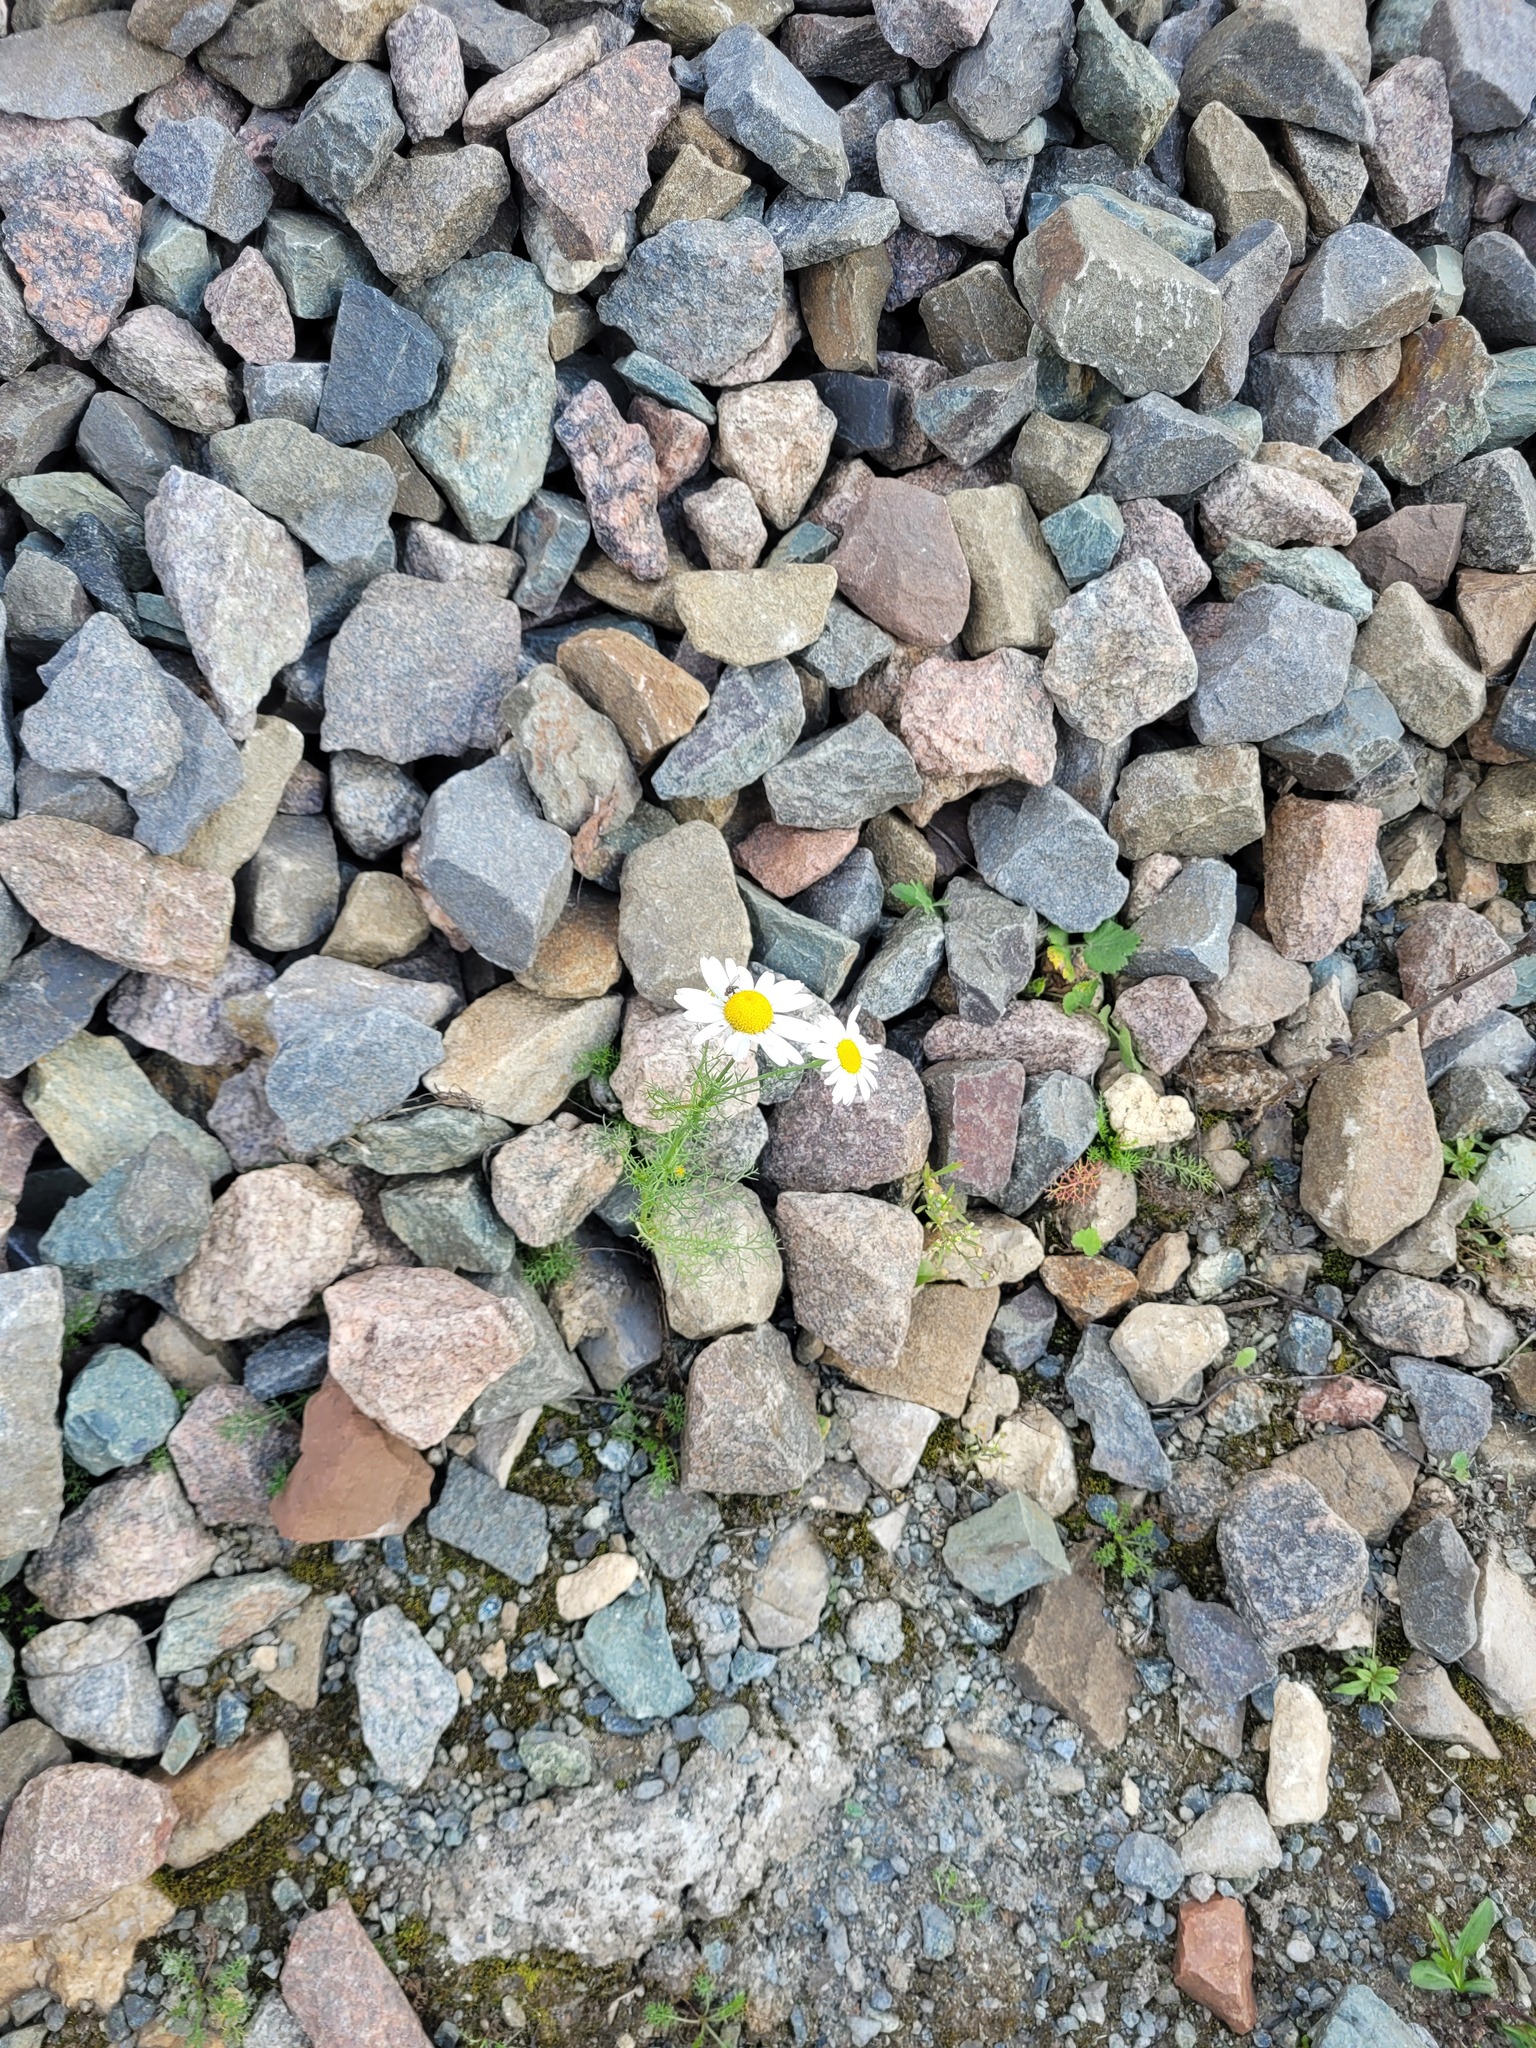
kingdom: Plantae
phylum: Tracheophyta
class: Magnoliopsida
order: Asterales
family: Asteraceae
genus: Tripleurospermum
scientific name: Tripleurospermum inodorum
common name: Scentless mayweed
